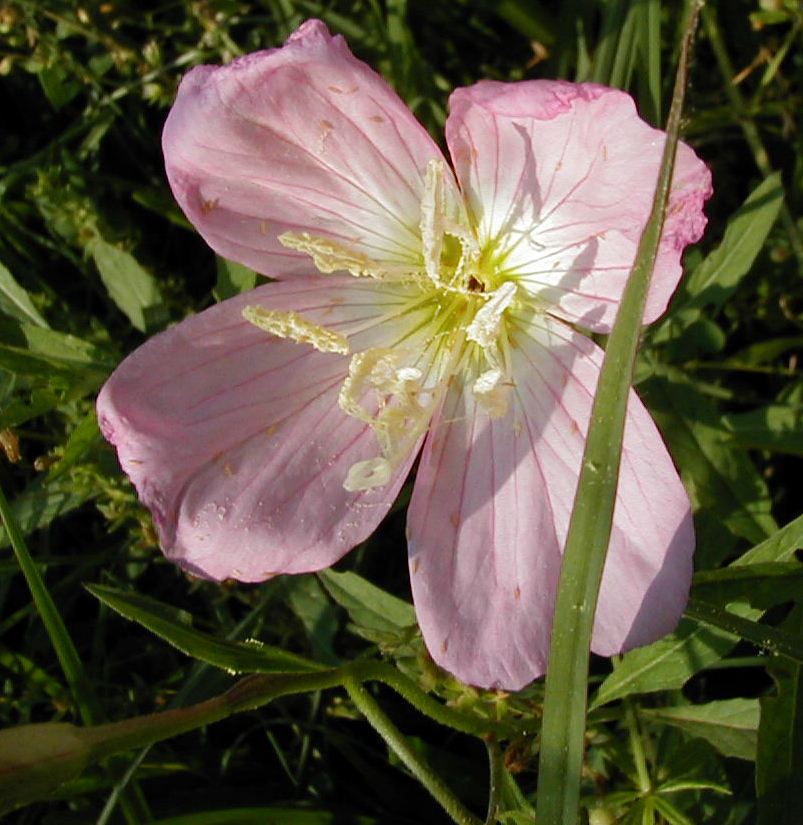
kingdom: Plantae
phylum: Tracheophyta
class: Magnoliopsida
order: Myrtales
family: Onagraceae
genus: Oenothera
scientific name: Oenothera speciosa
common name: White evening-primrose
